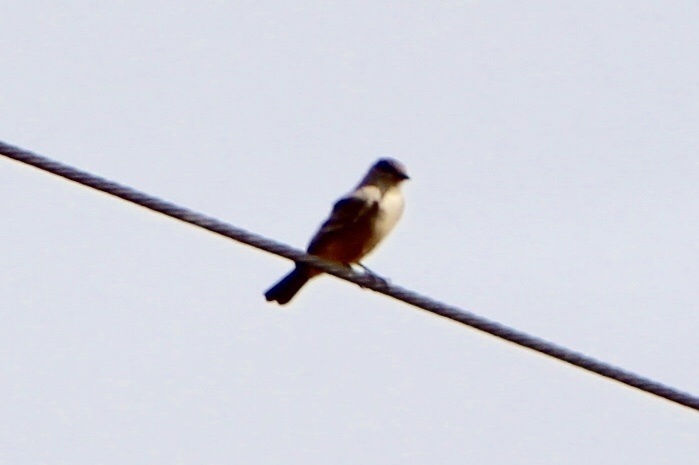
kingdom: Animalia
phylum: Chordata
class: Aves
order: Passeriformes
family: Tyrannidae
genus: Sayornis
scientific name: Sayornis saya
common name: Say's phoebe
